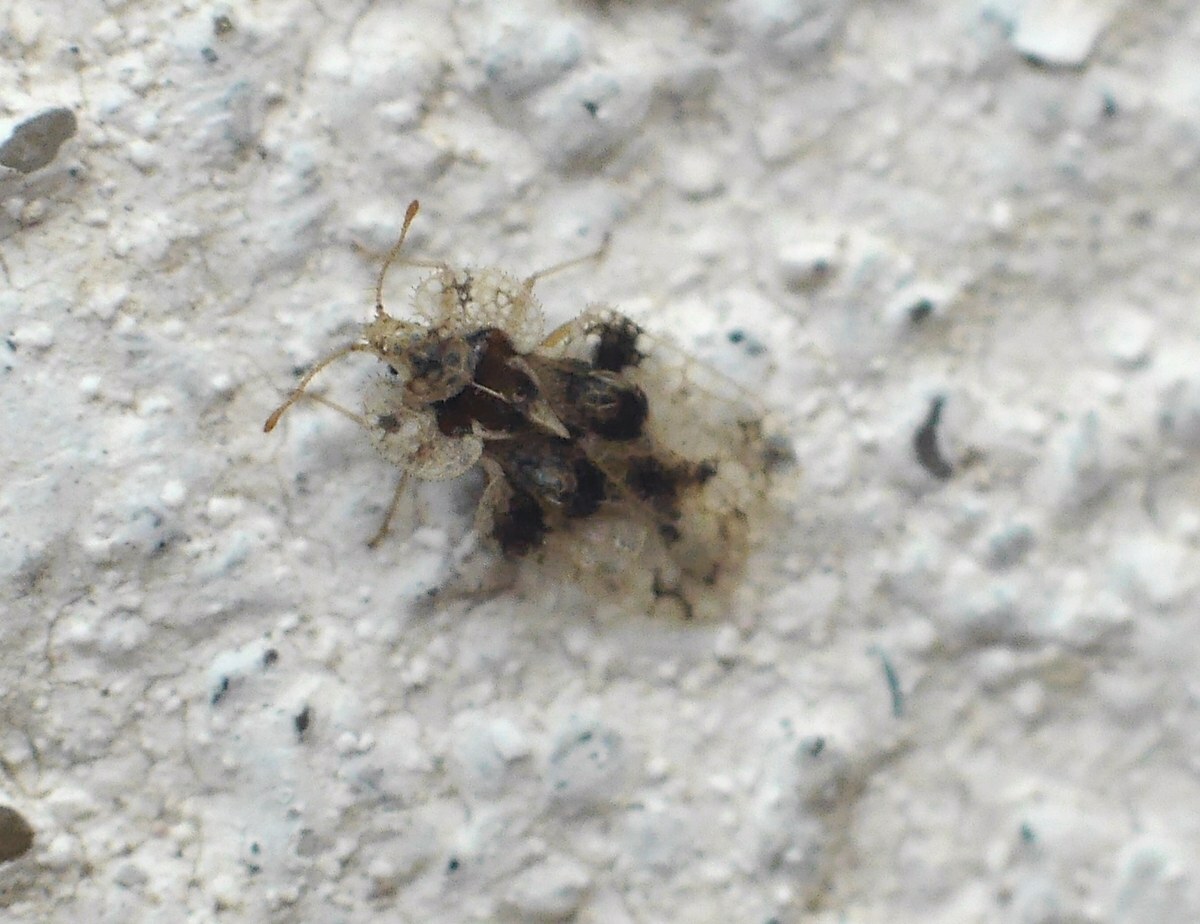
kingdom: Animalia
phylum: Arthropoda
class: Insecta
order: Hemiptera
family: Tingidae
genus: Corythucha
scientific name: Corythucha arcuata
